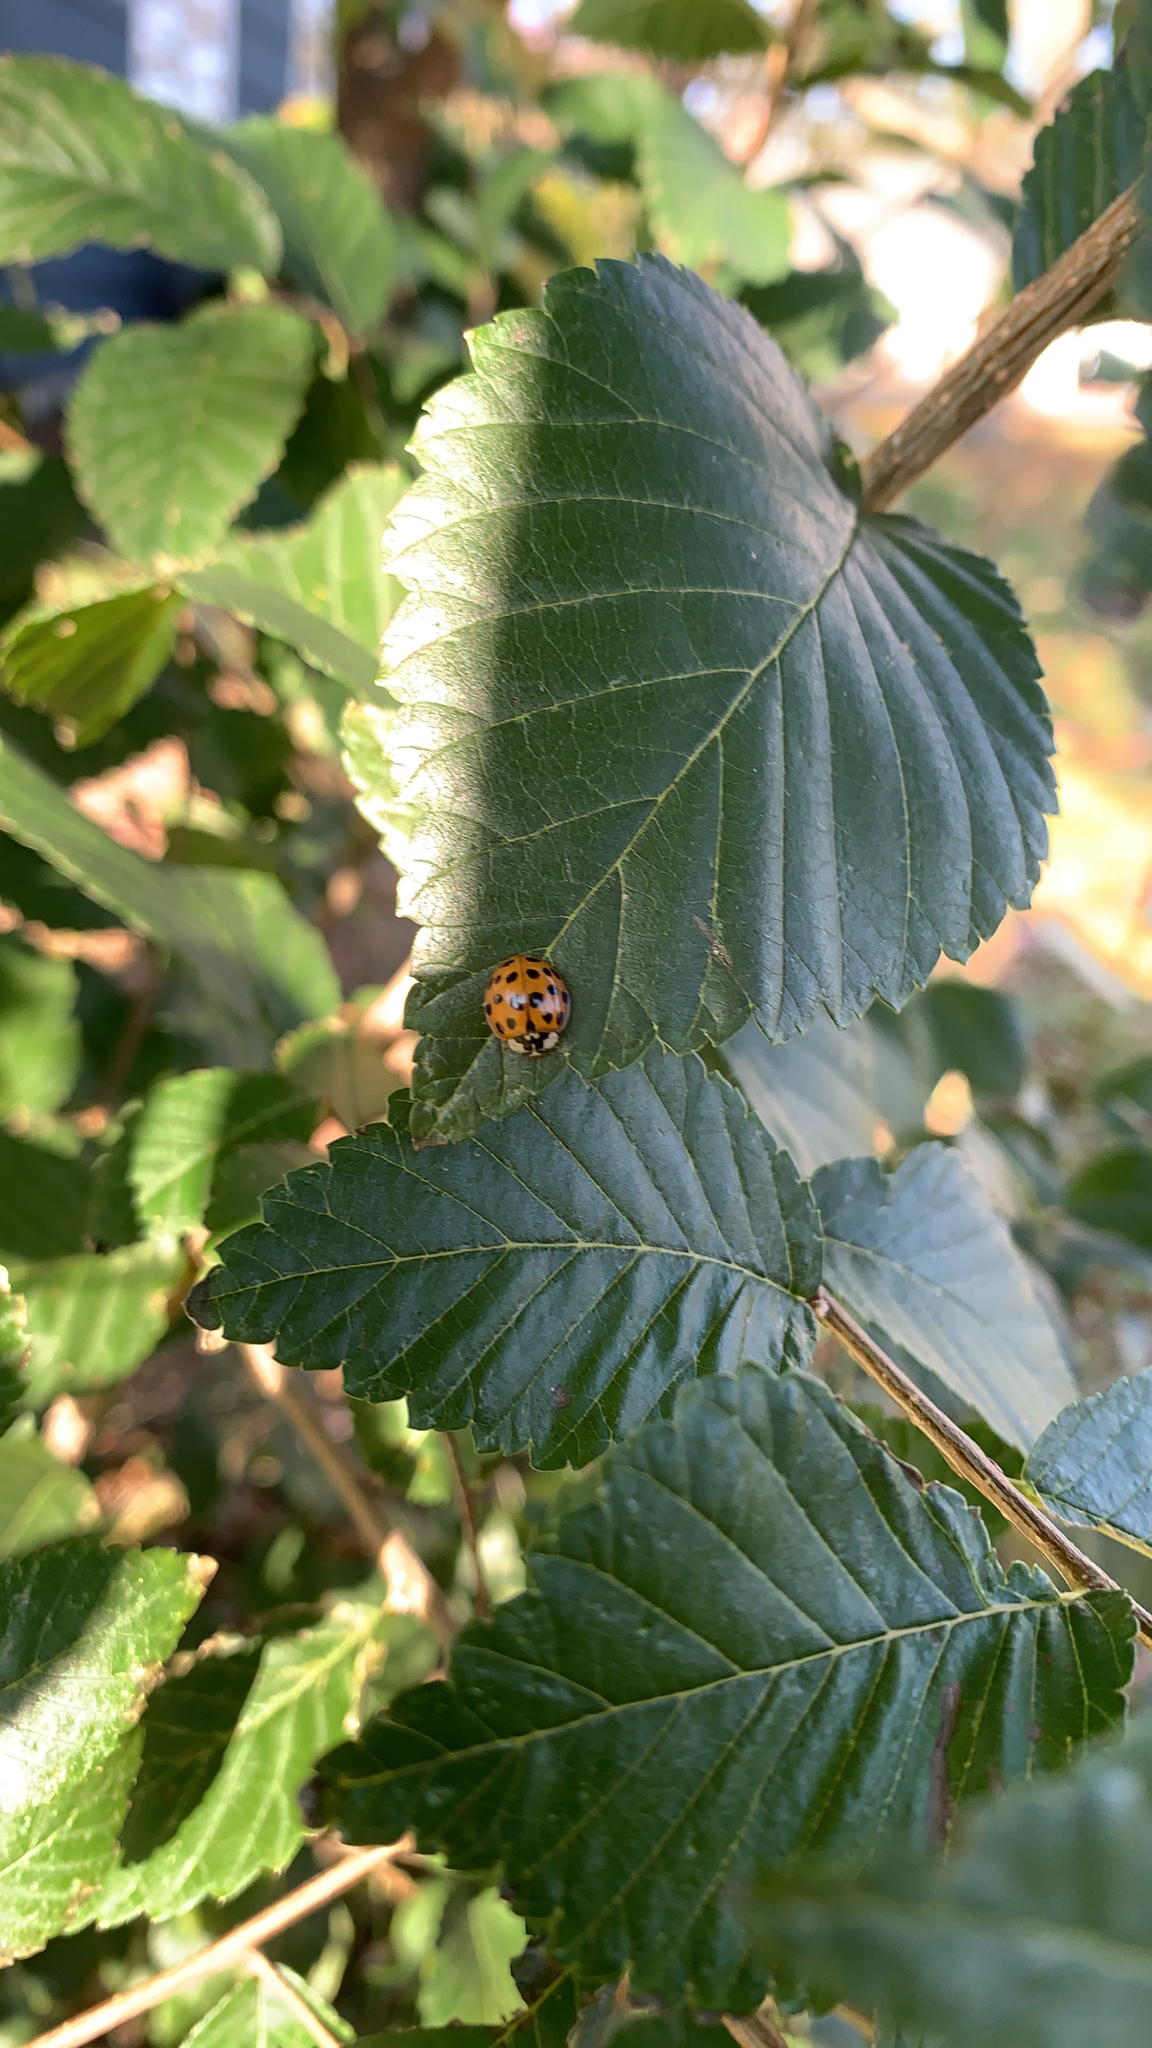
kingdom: Animalia
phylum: Arthropoda
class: Insecta
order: Coleoptera
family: Coccinellidae
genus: Harmonia
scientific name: Harmonia axyridis
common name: Harlequin ladybird
